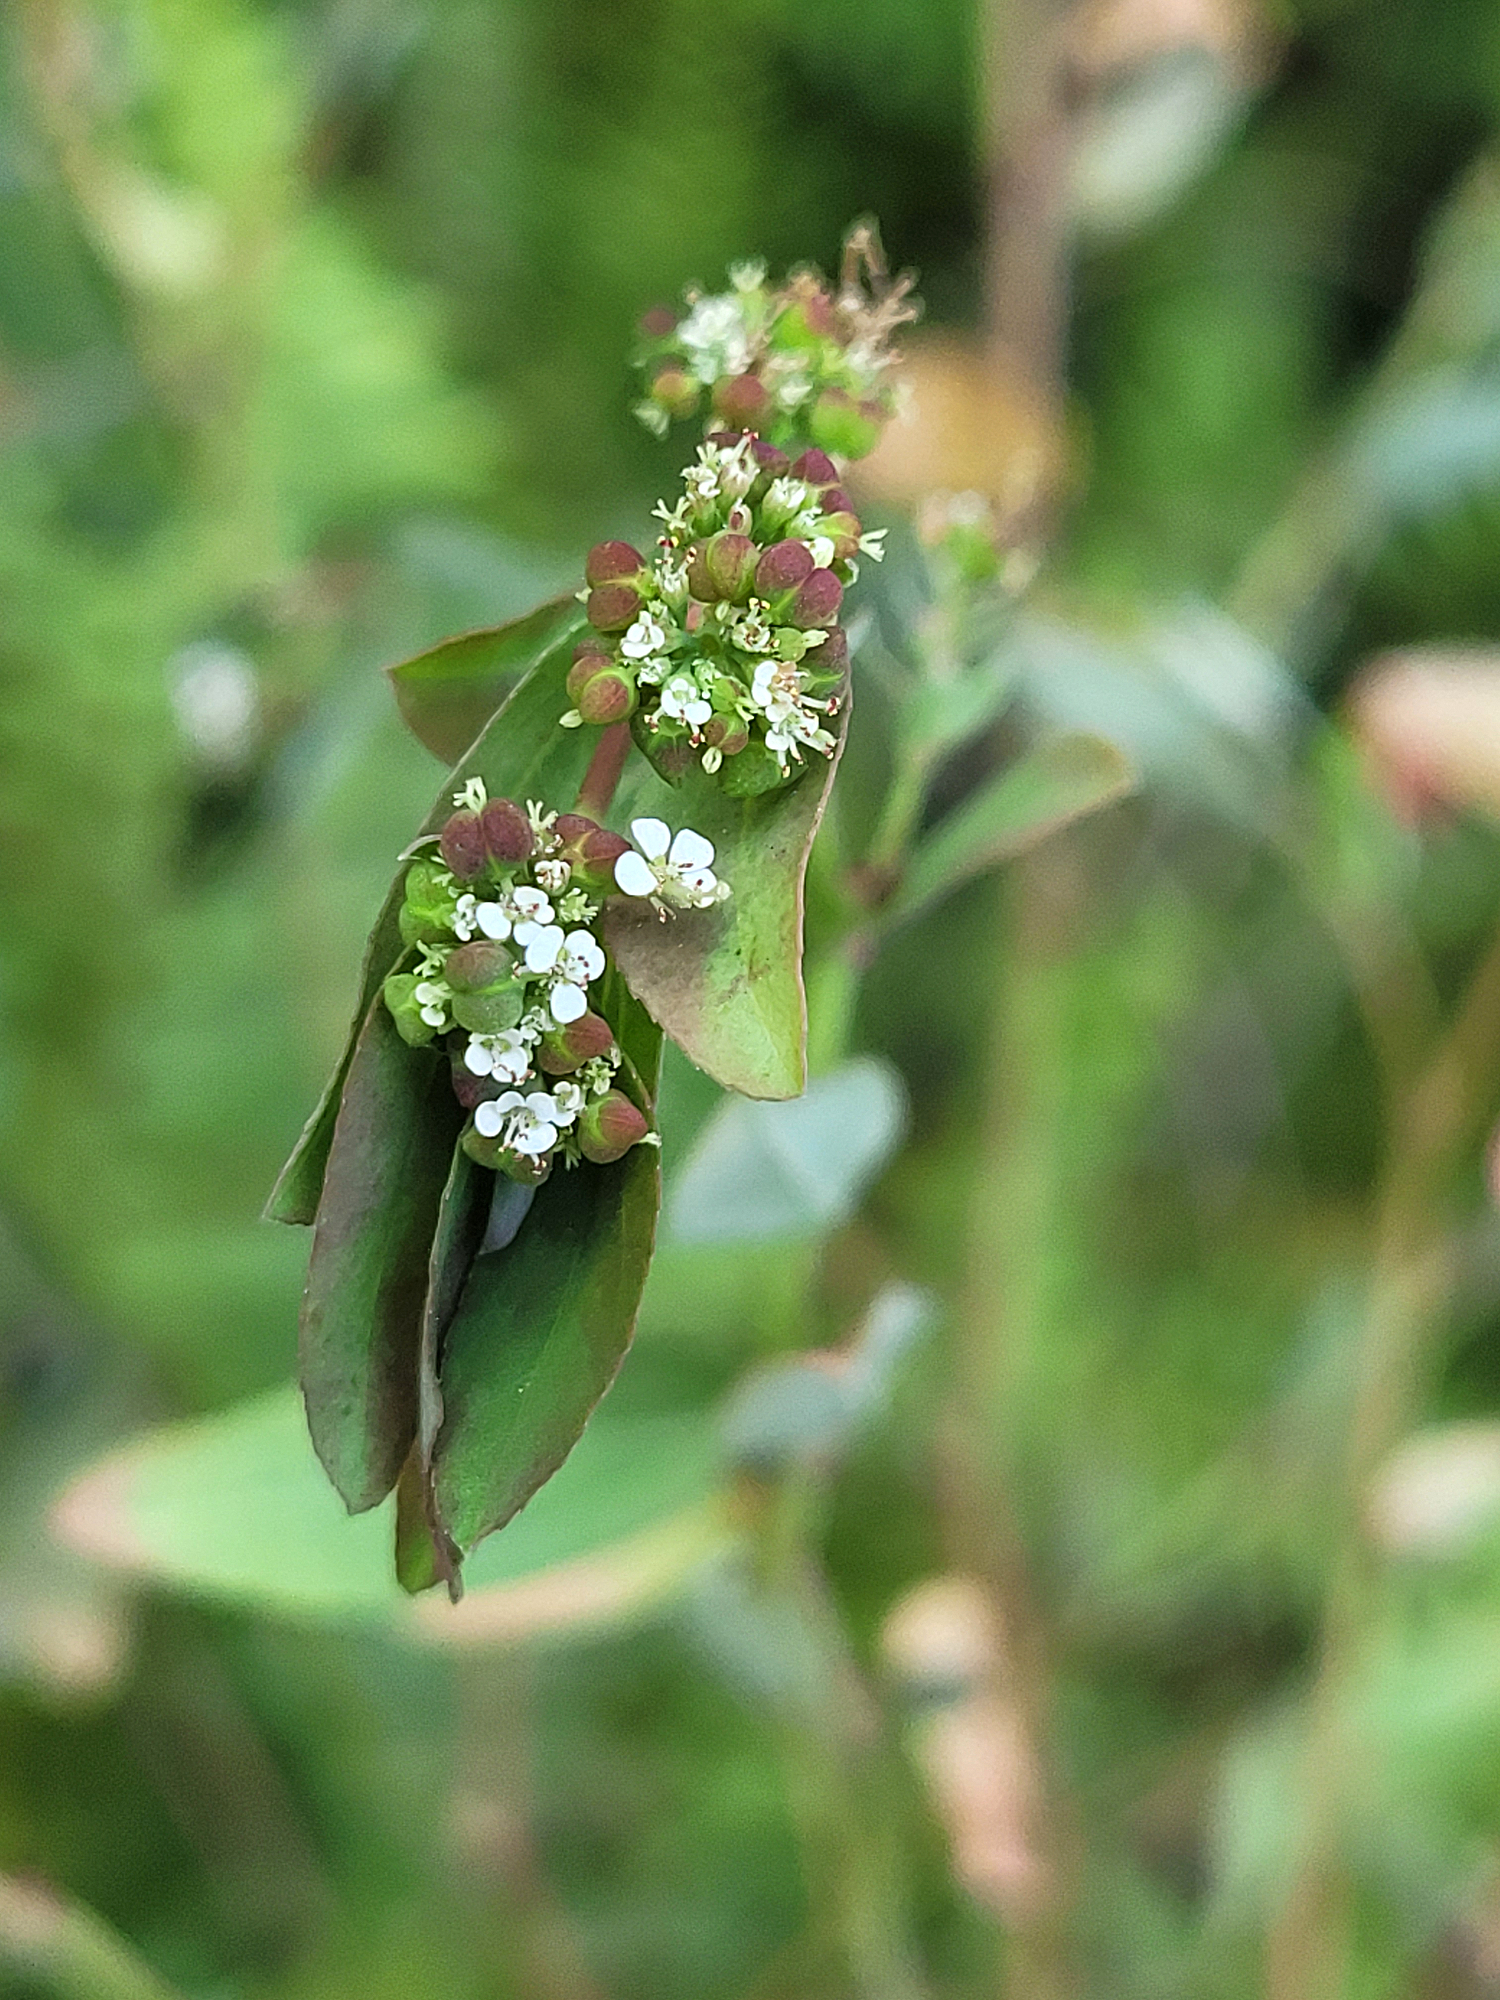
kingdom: Plantae
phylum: Tracheophyta
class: Magnoliopsida
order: Malpighiales
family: Euphorbiaceae
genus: Euphorbia
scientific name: Euphorbia hypericifolia
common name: Graceful sandmat
